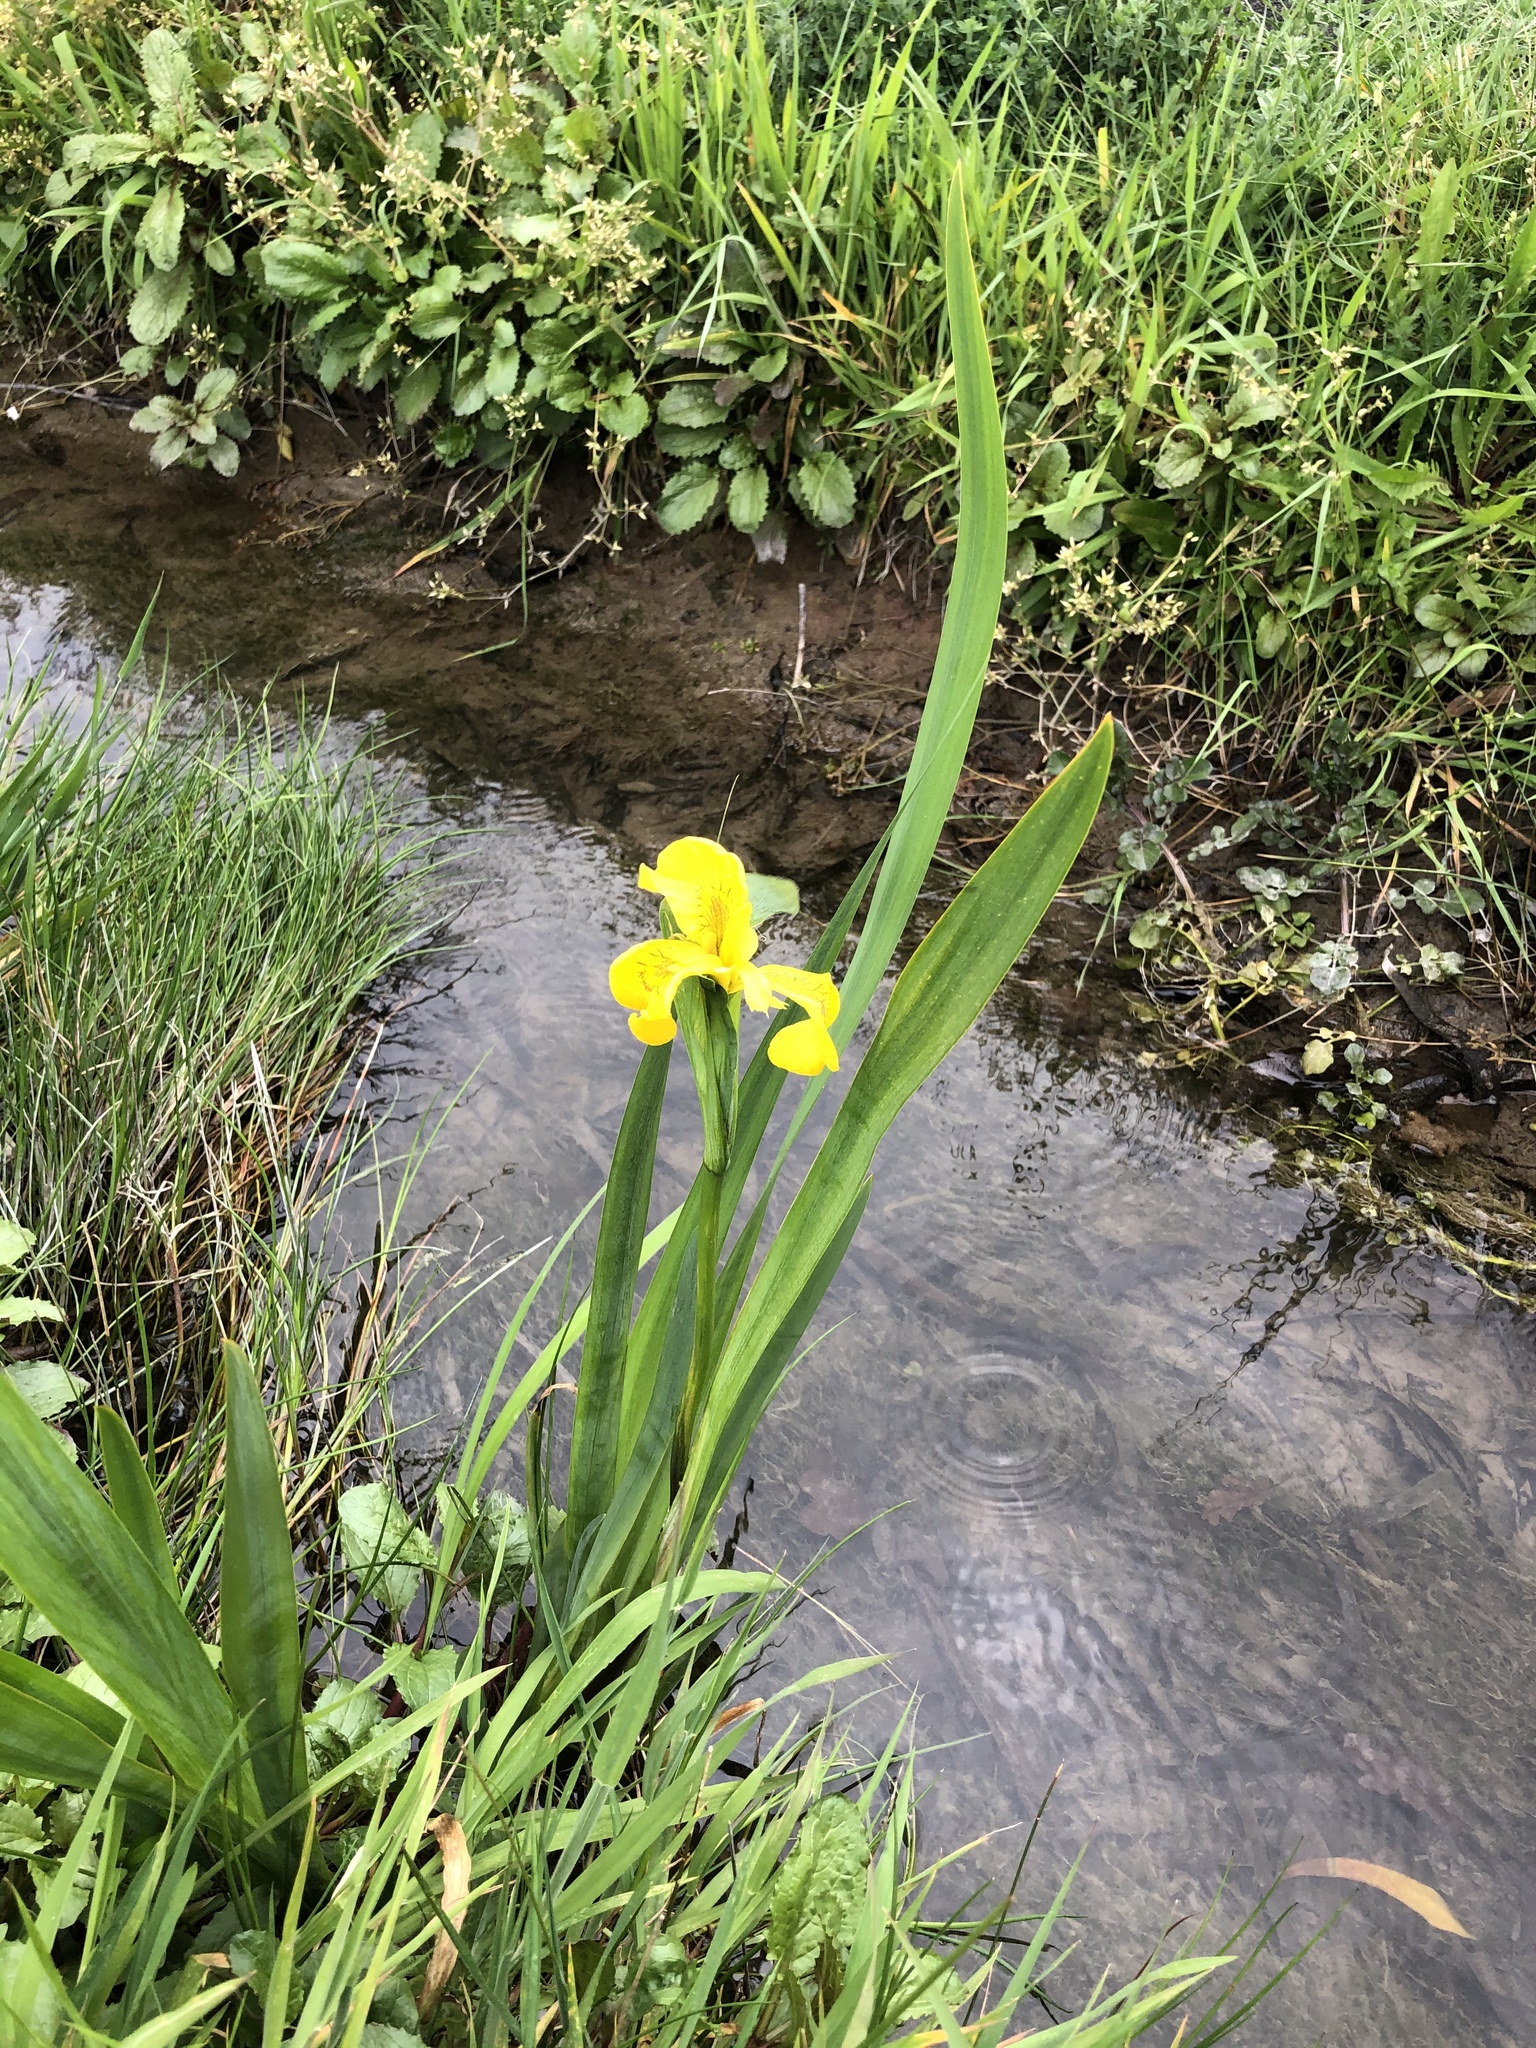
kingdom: Plantae
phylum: Tracheophyta
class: Liliopsida
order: Asparagales
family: Iridaceae
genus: Iris
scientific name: Iris pseudacorus
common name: Yellow flag
